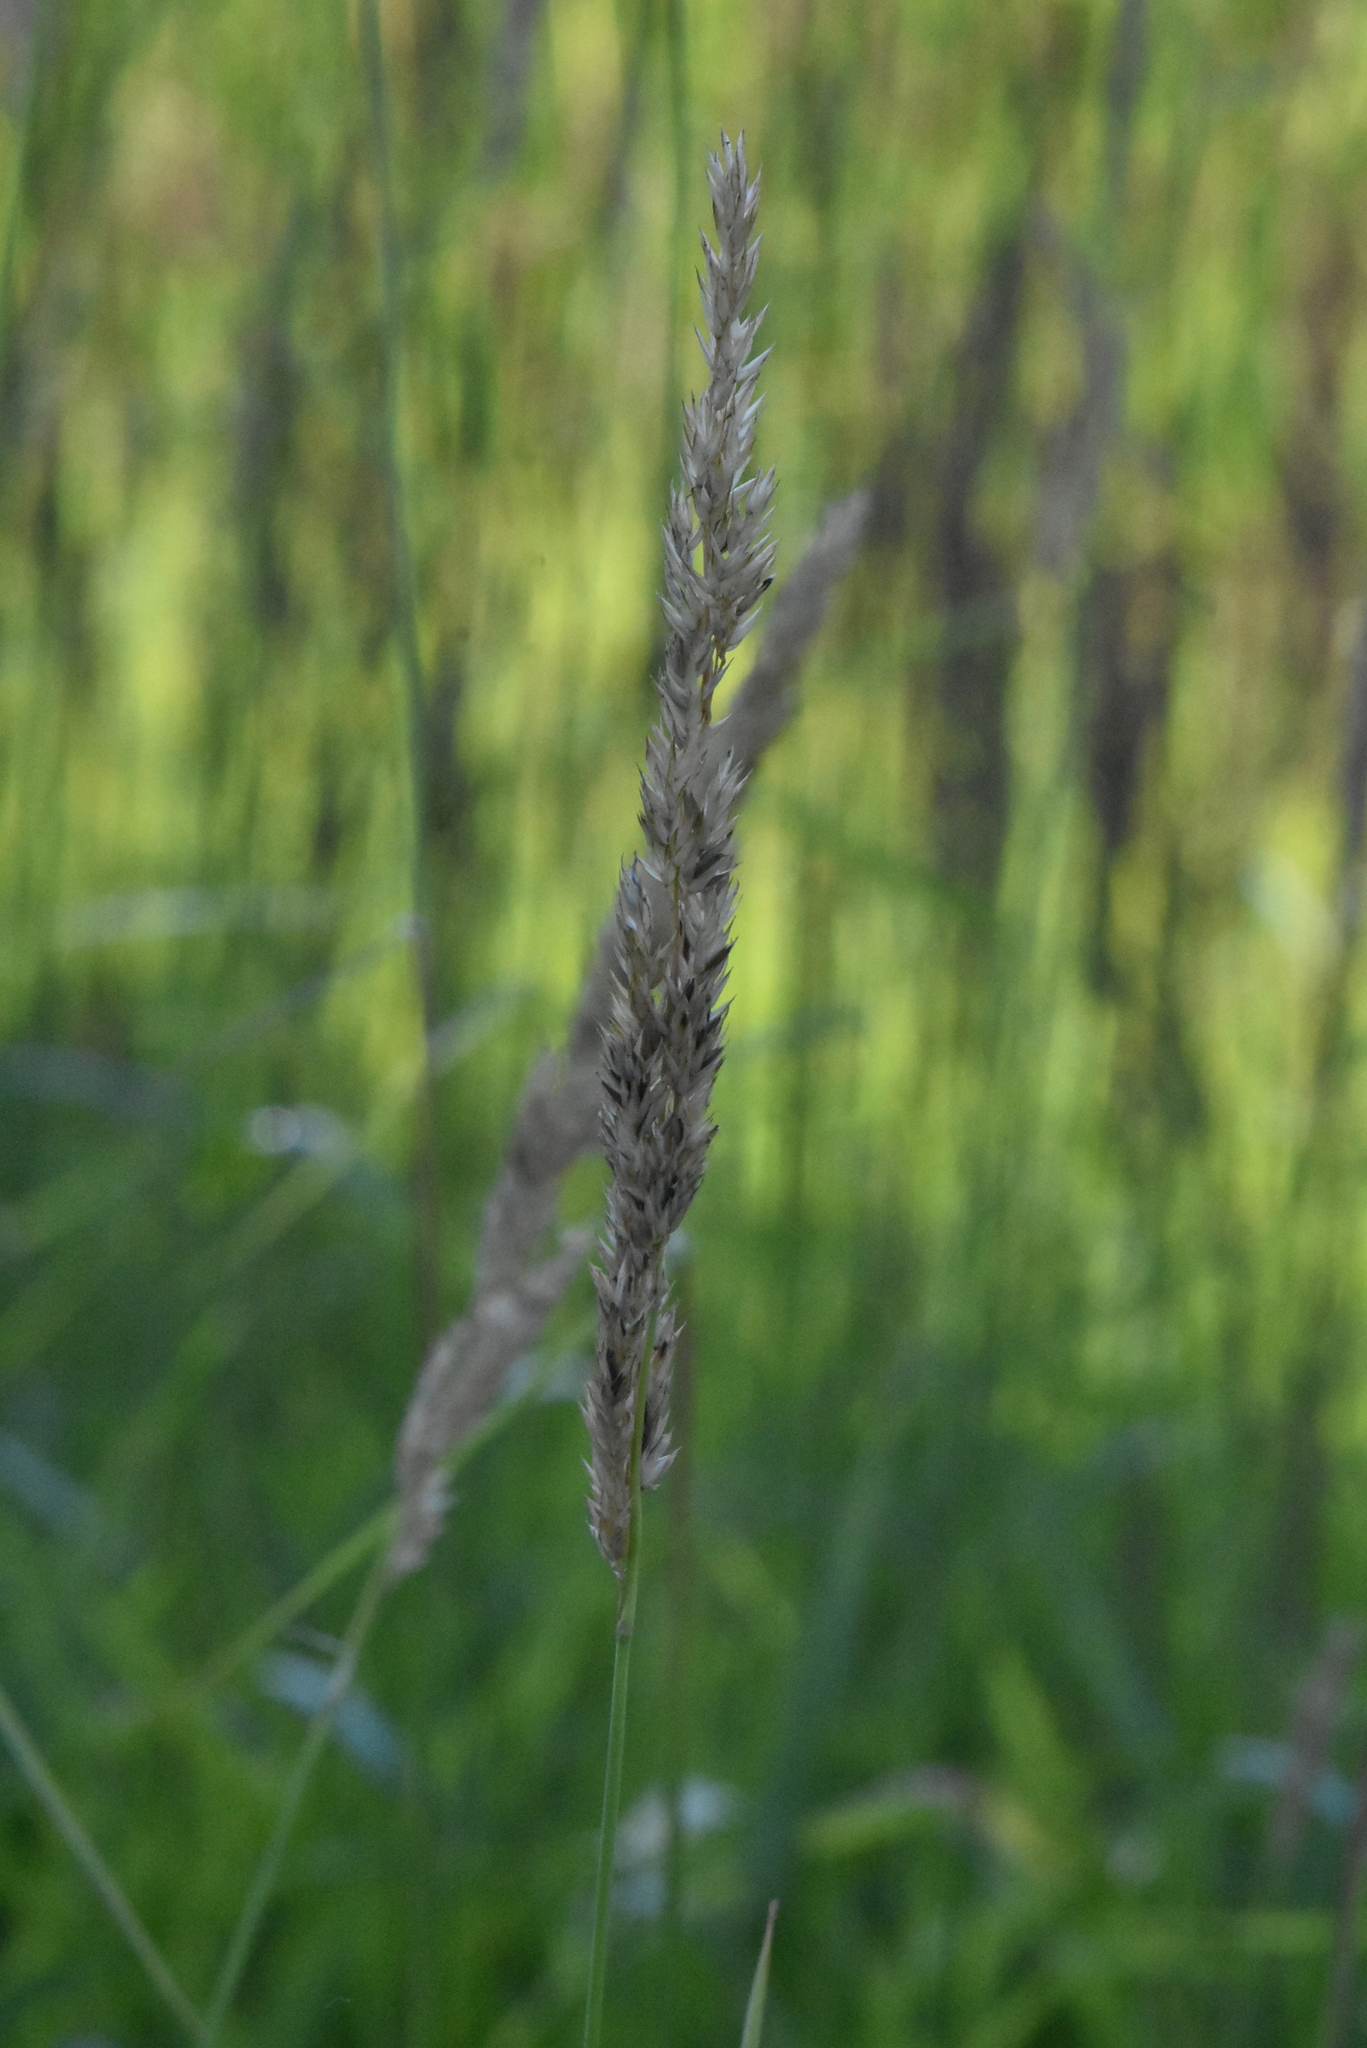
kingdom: Plantae
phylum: Tracheophyta
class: Liliopsida
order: Poales
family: Poaceae
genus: Phalaris
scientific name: Phalaris arundinacea
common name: Reed canary-grass
